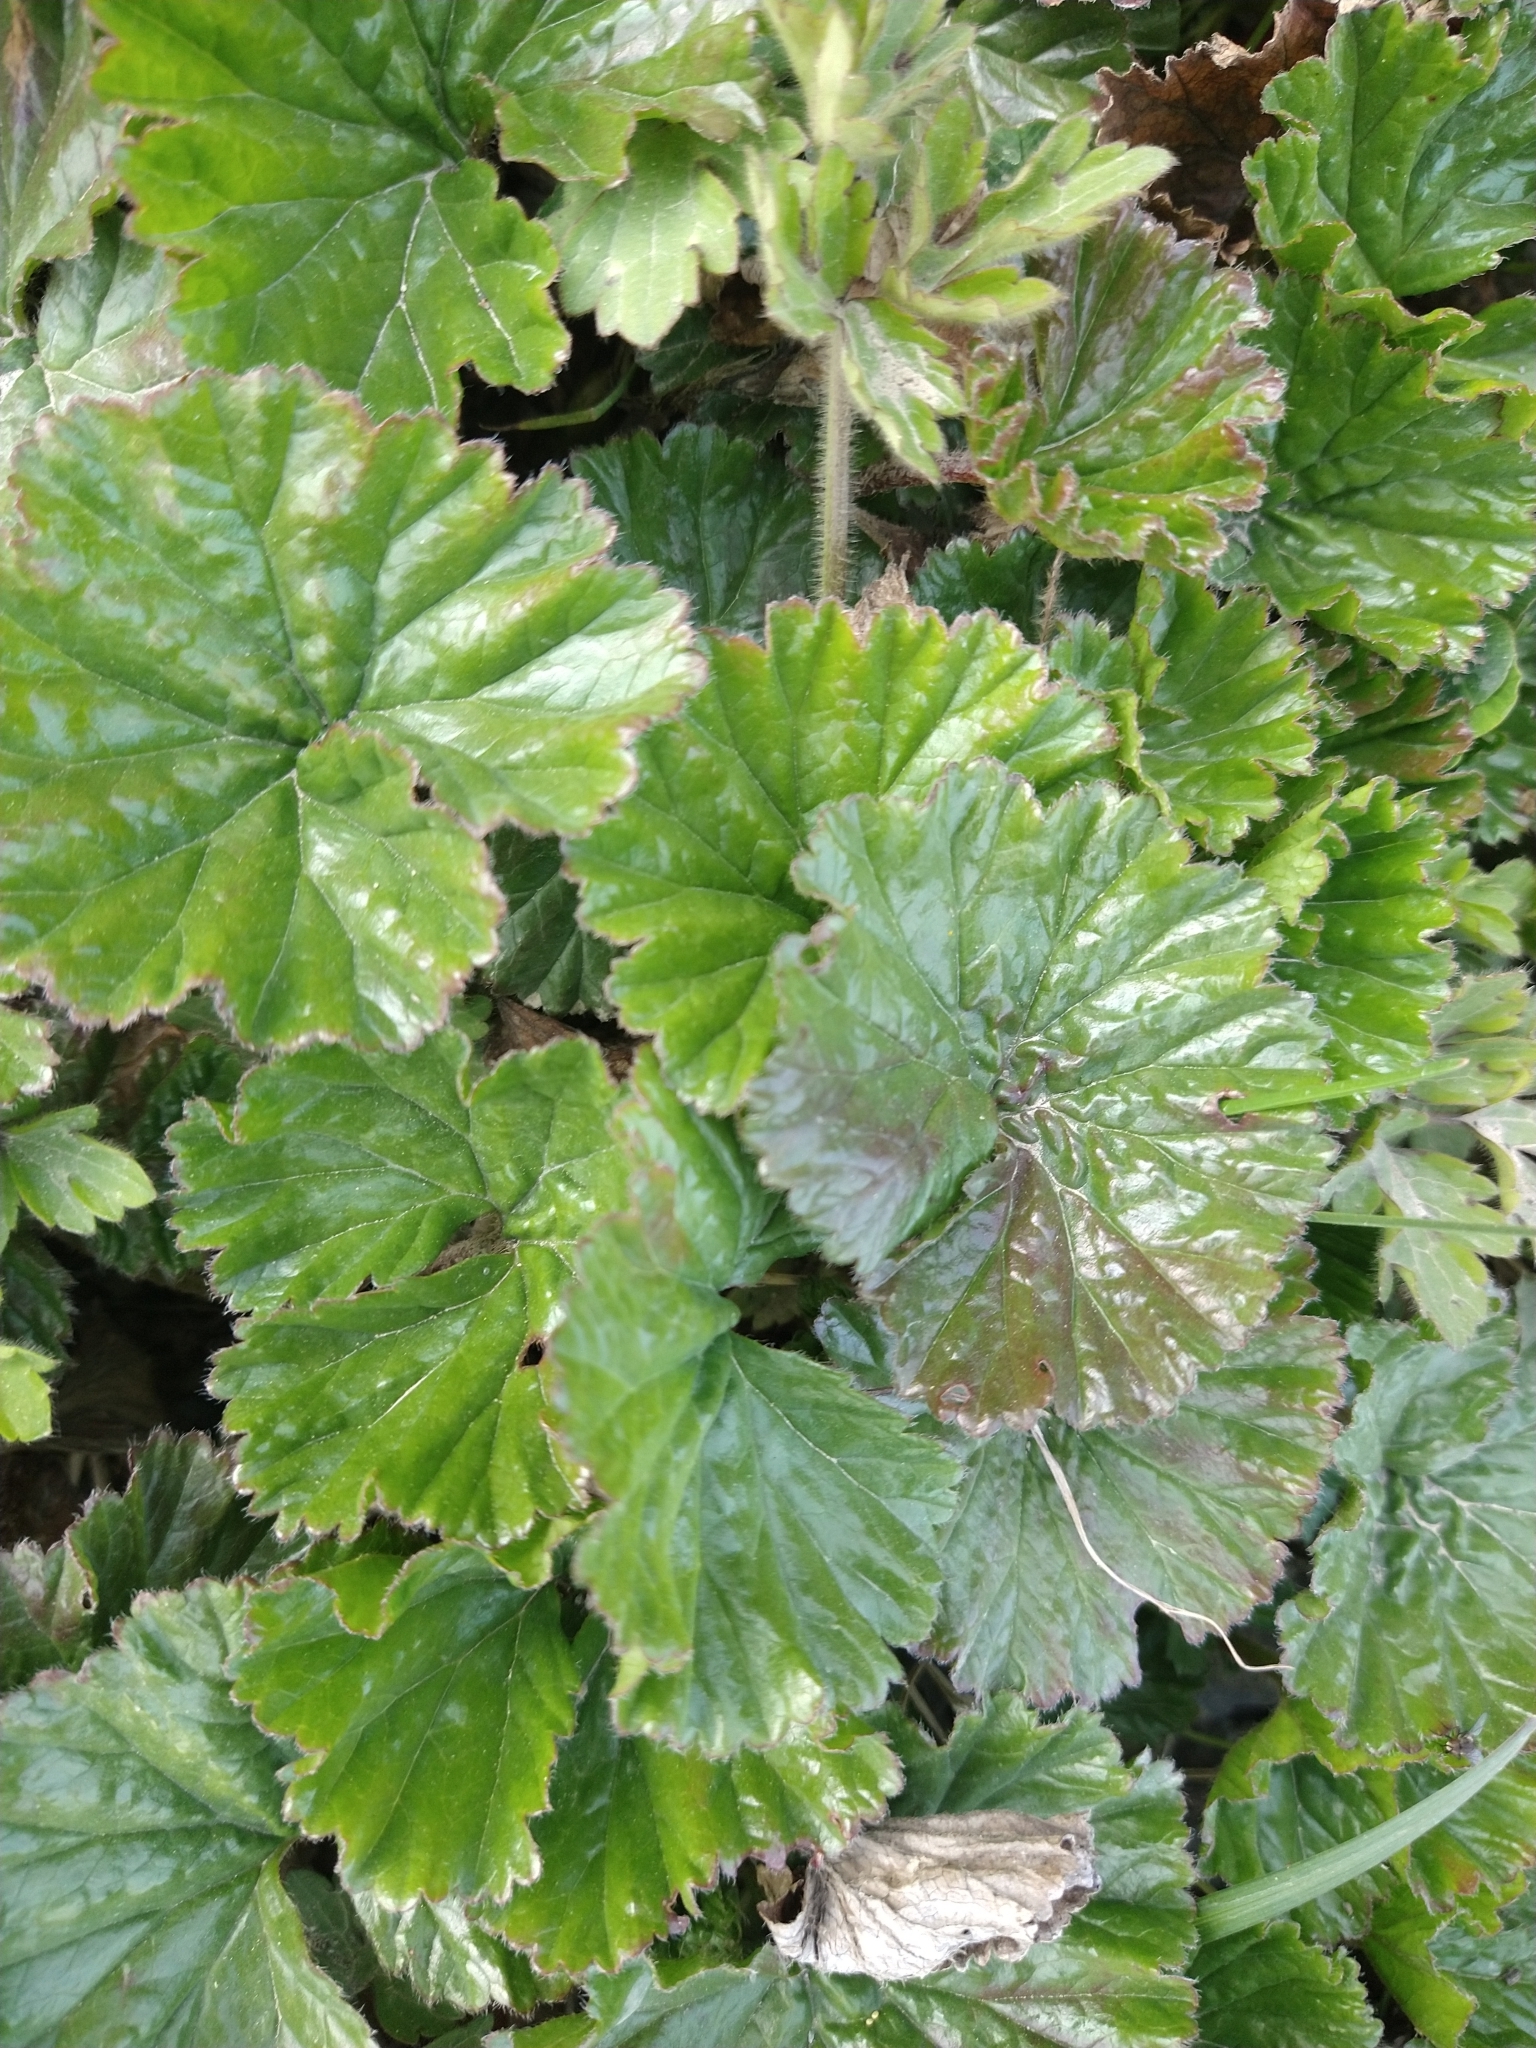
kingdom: Plantae
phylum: Tracheophyta
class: Magnoliopsida
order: Gunnerales
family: Gunneraceae
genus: Gunnera
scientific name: Gunnera magellanica
